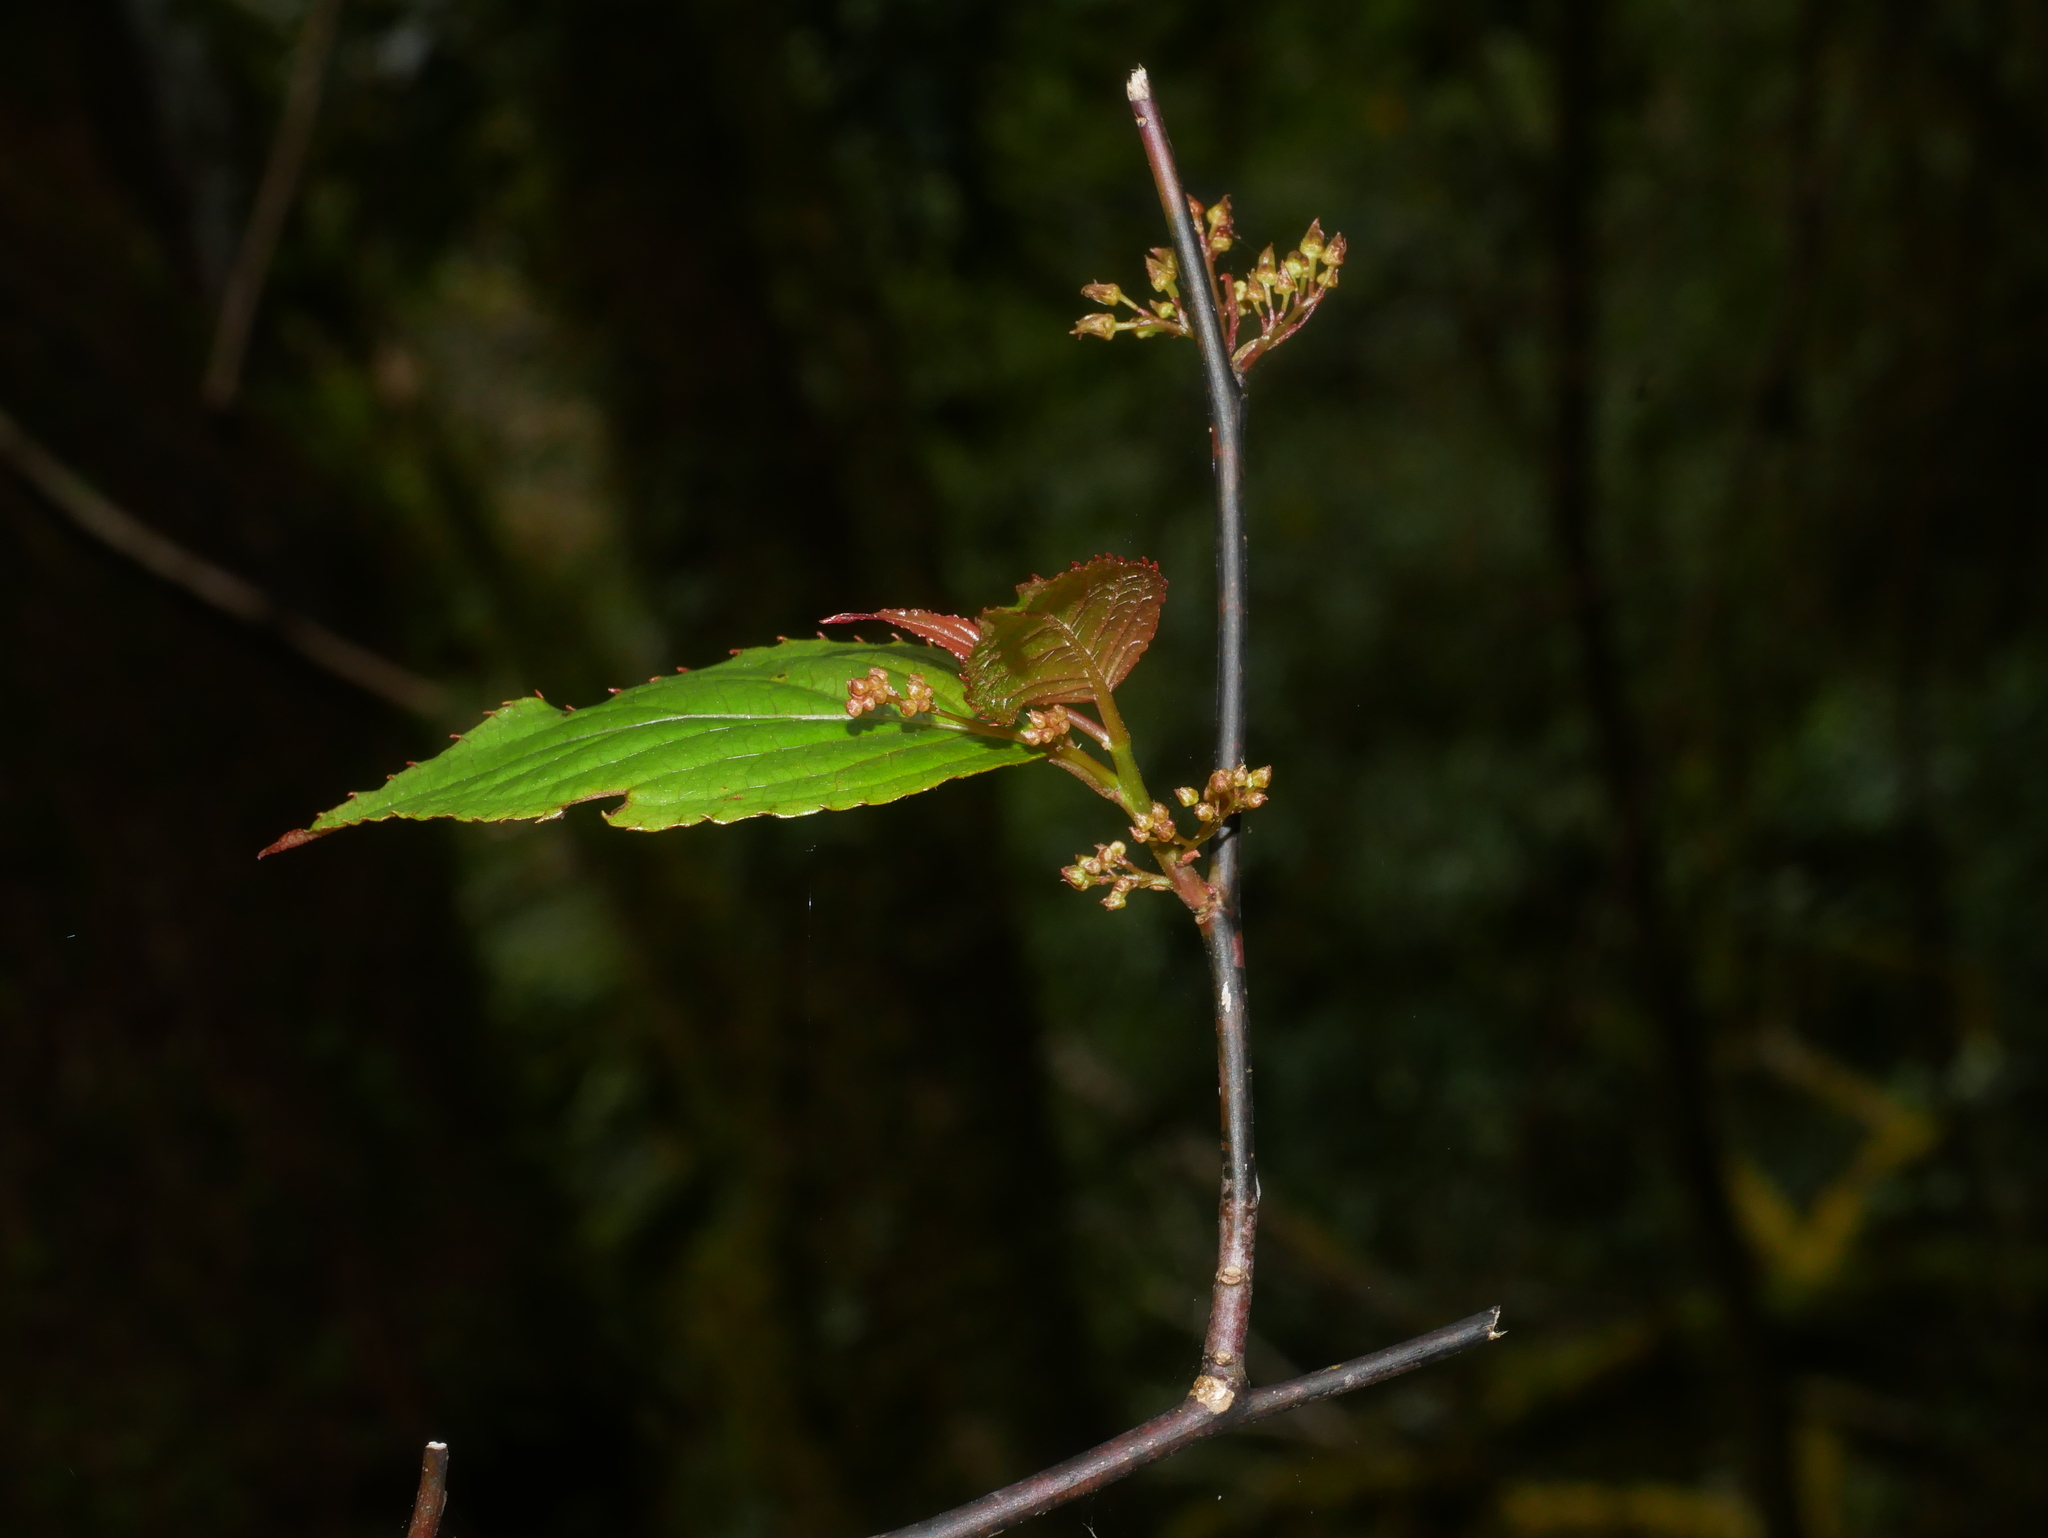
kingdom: Plantae
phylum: Tracheophyta
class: Magnoliopsida
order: Huerteales
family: Dipentodontaceae
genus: Perrottetia
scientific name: Perrottetia arisanensis
